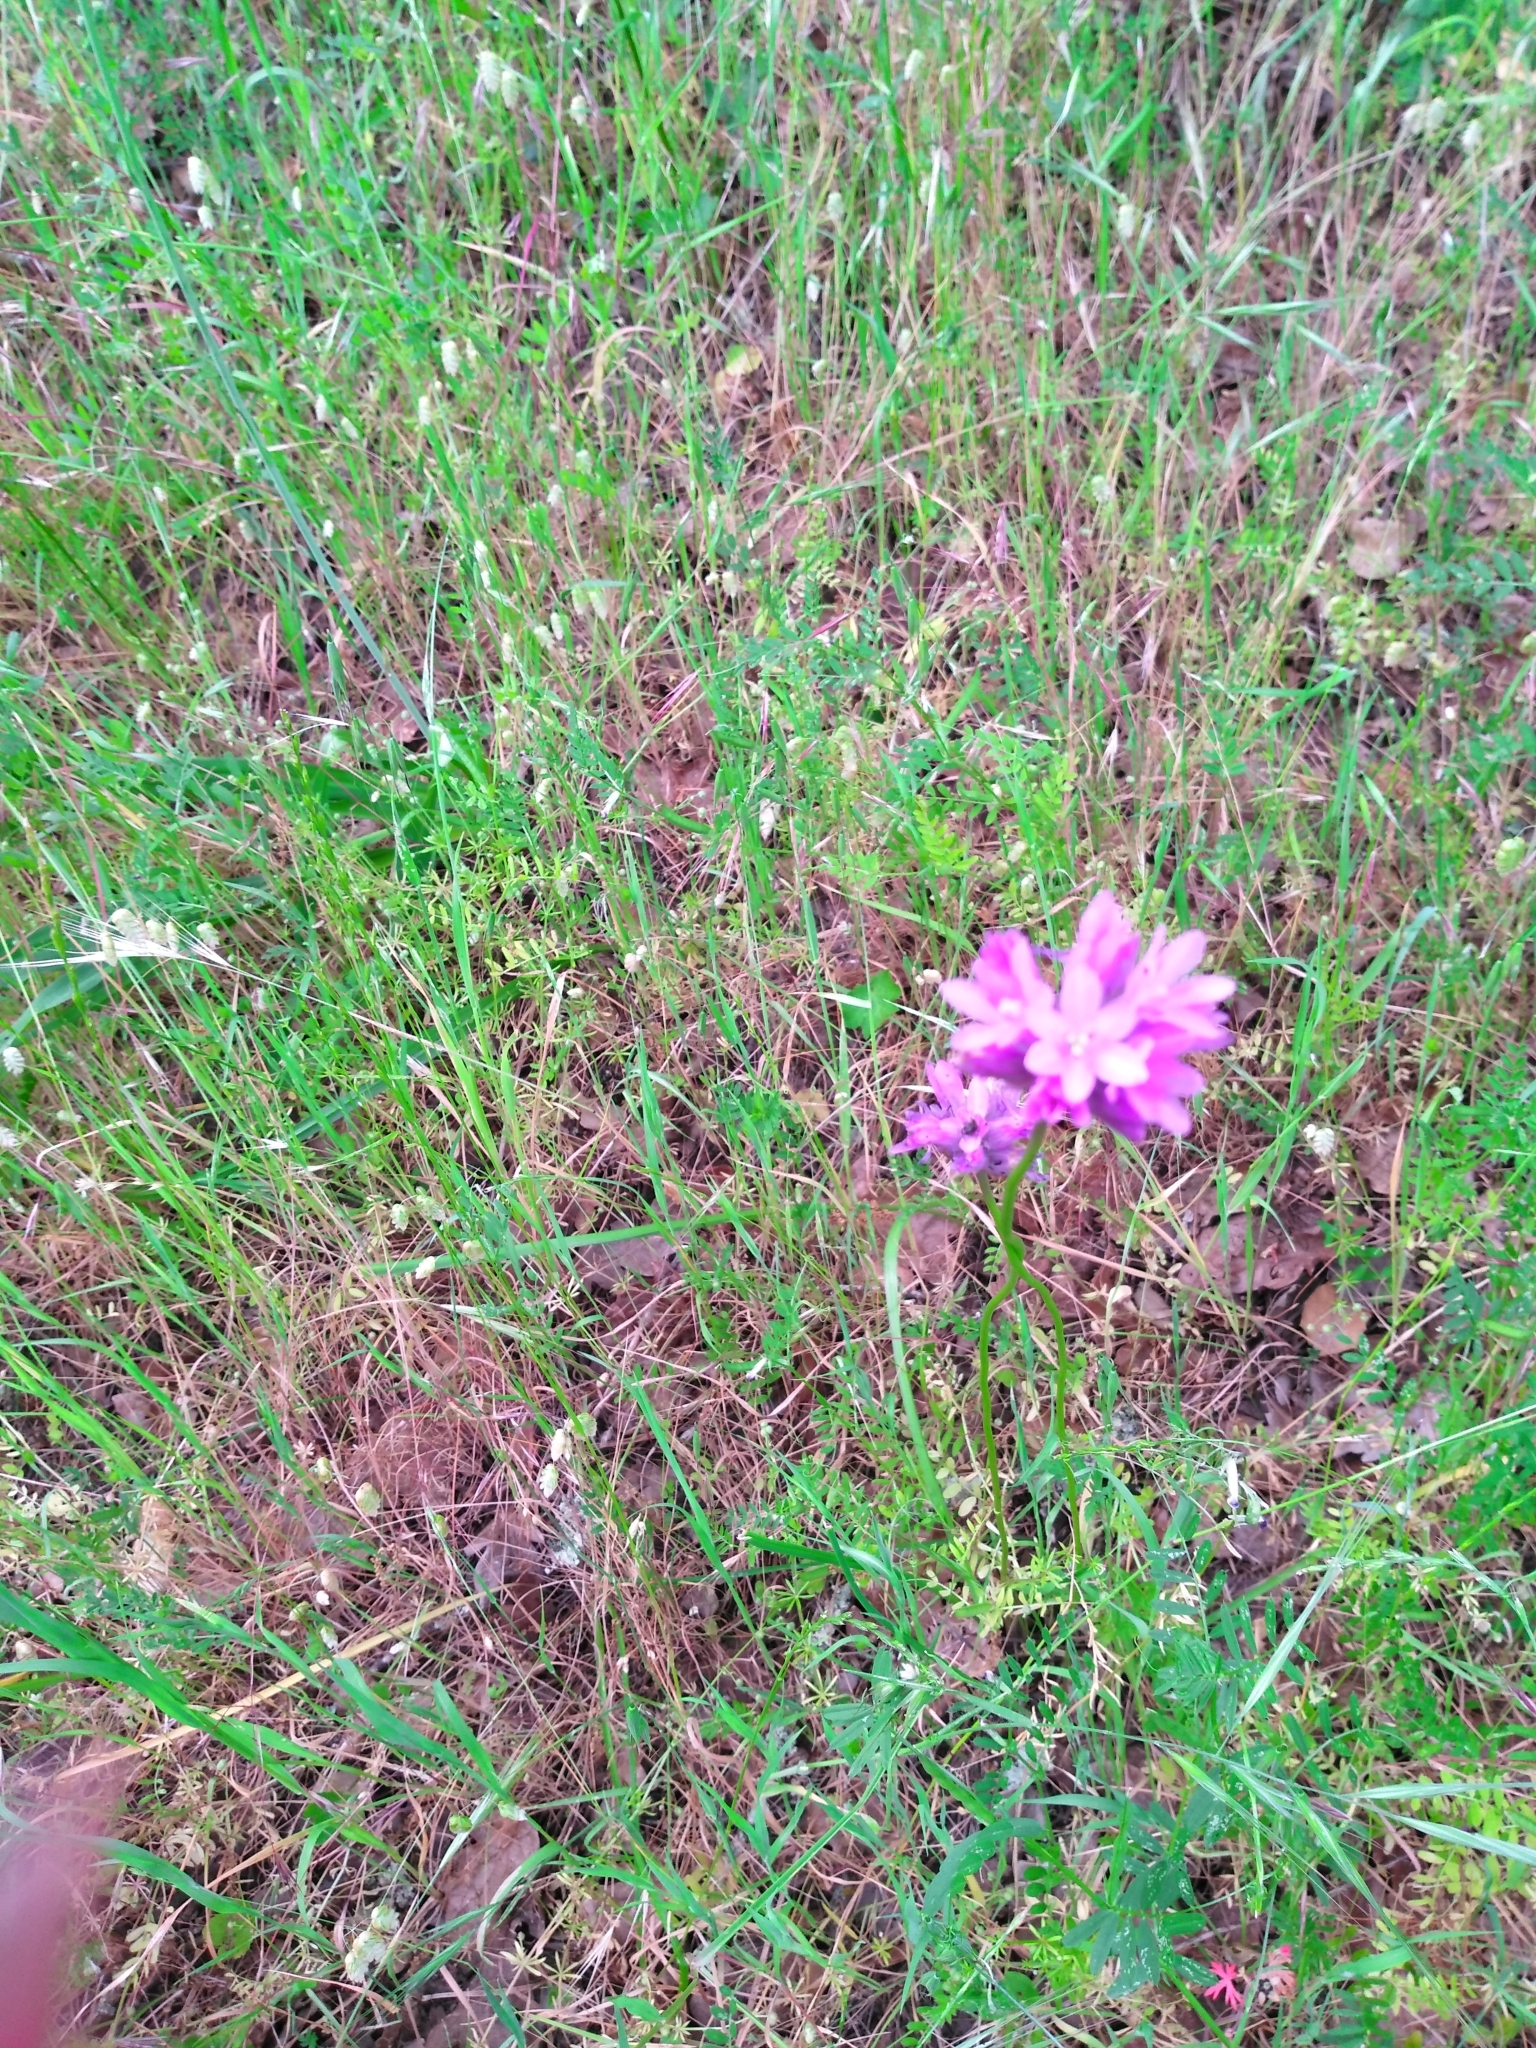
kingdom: Plantae
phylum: Tracheophyta
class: Liliopsida
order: Asparagales
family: Asparagaceae
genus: Dichelostemma
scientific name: Dichelostemma congestum
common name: Fork-tooth ookow
